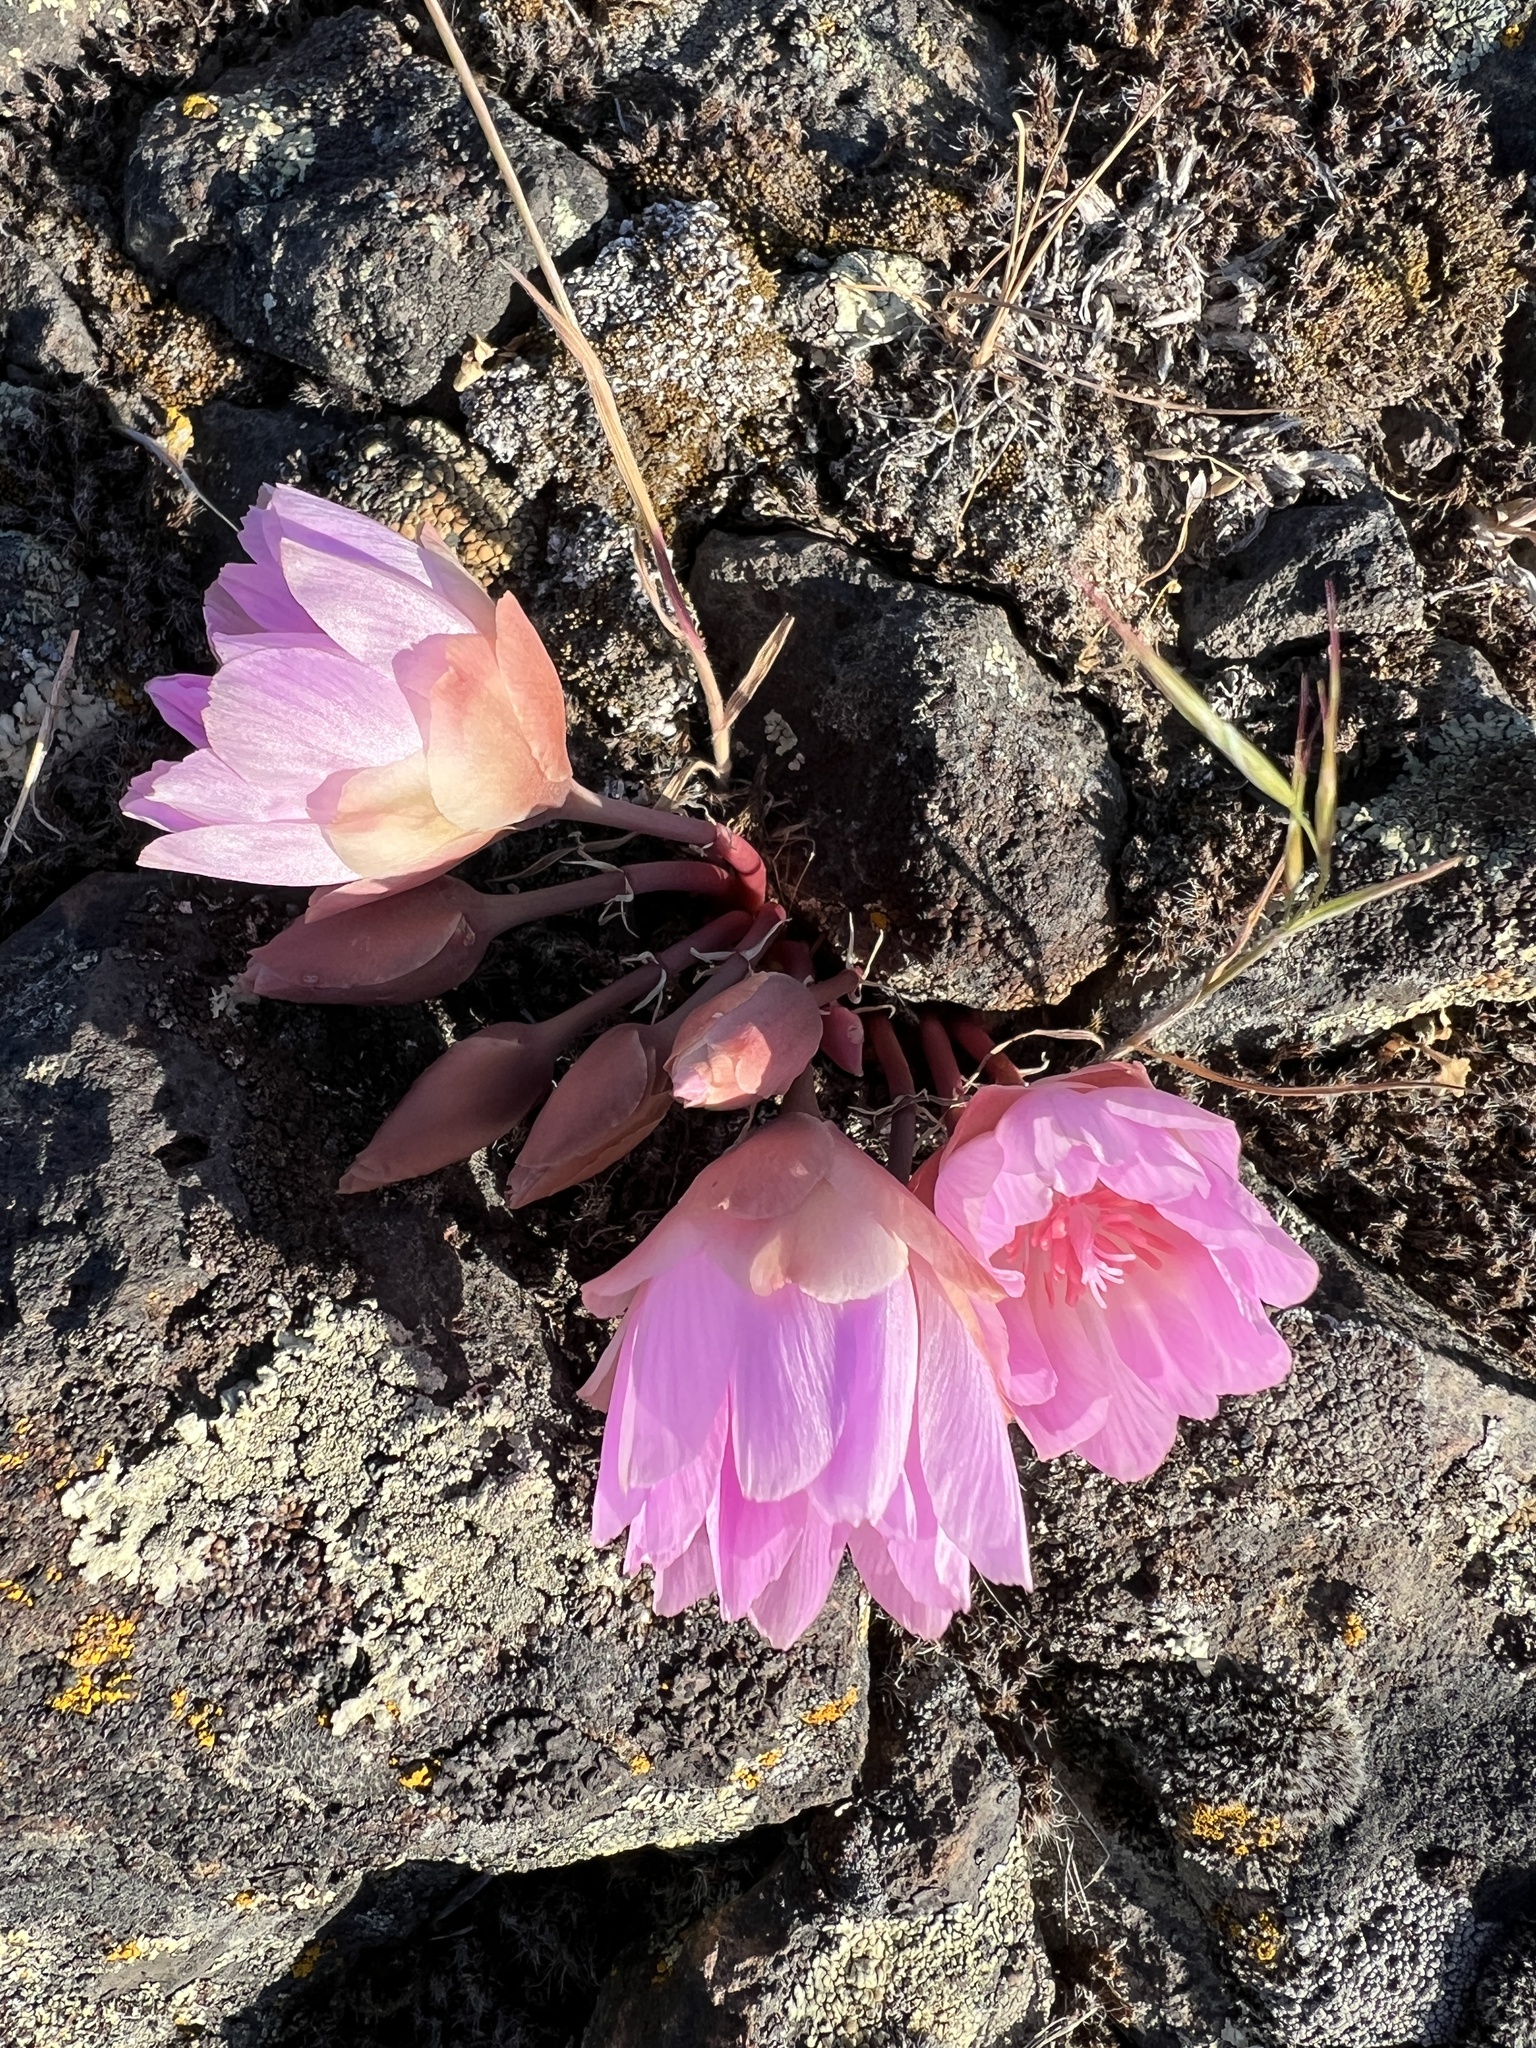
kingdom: Plantae
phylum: Tracheophyta
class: Magnoliopsida
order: Caryophyllales
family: Montiaceae
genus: Lewisia
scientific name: Lewisia rediviva
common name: Bitter-root
